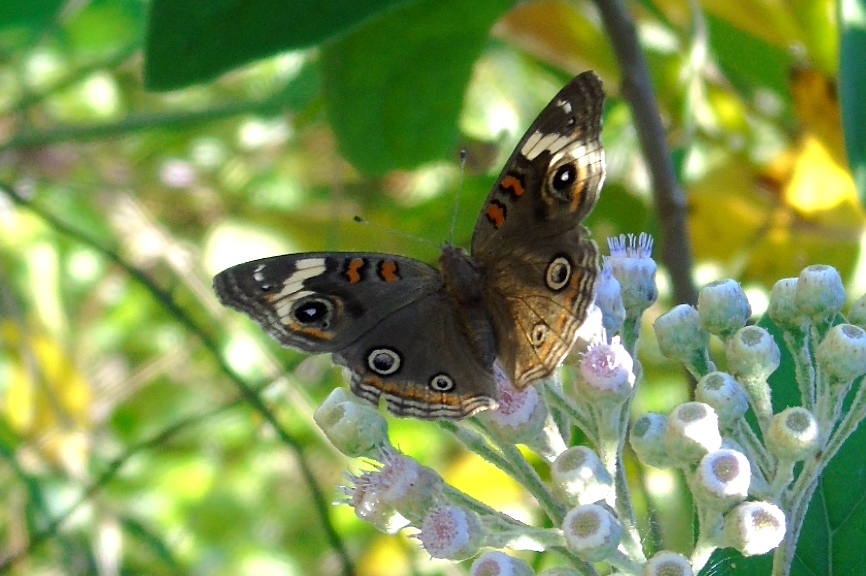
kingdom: Animalia
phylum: Arthropoda
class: Insecta
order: Lepidoptera
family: Nymphalidae
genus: Junonia
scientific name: Junonia coenia
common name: Common buckeye
